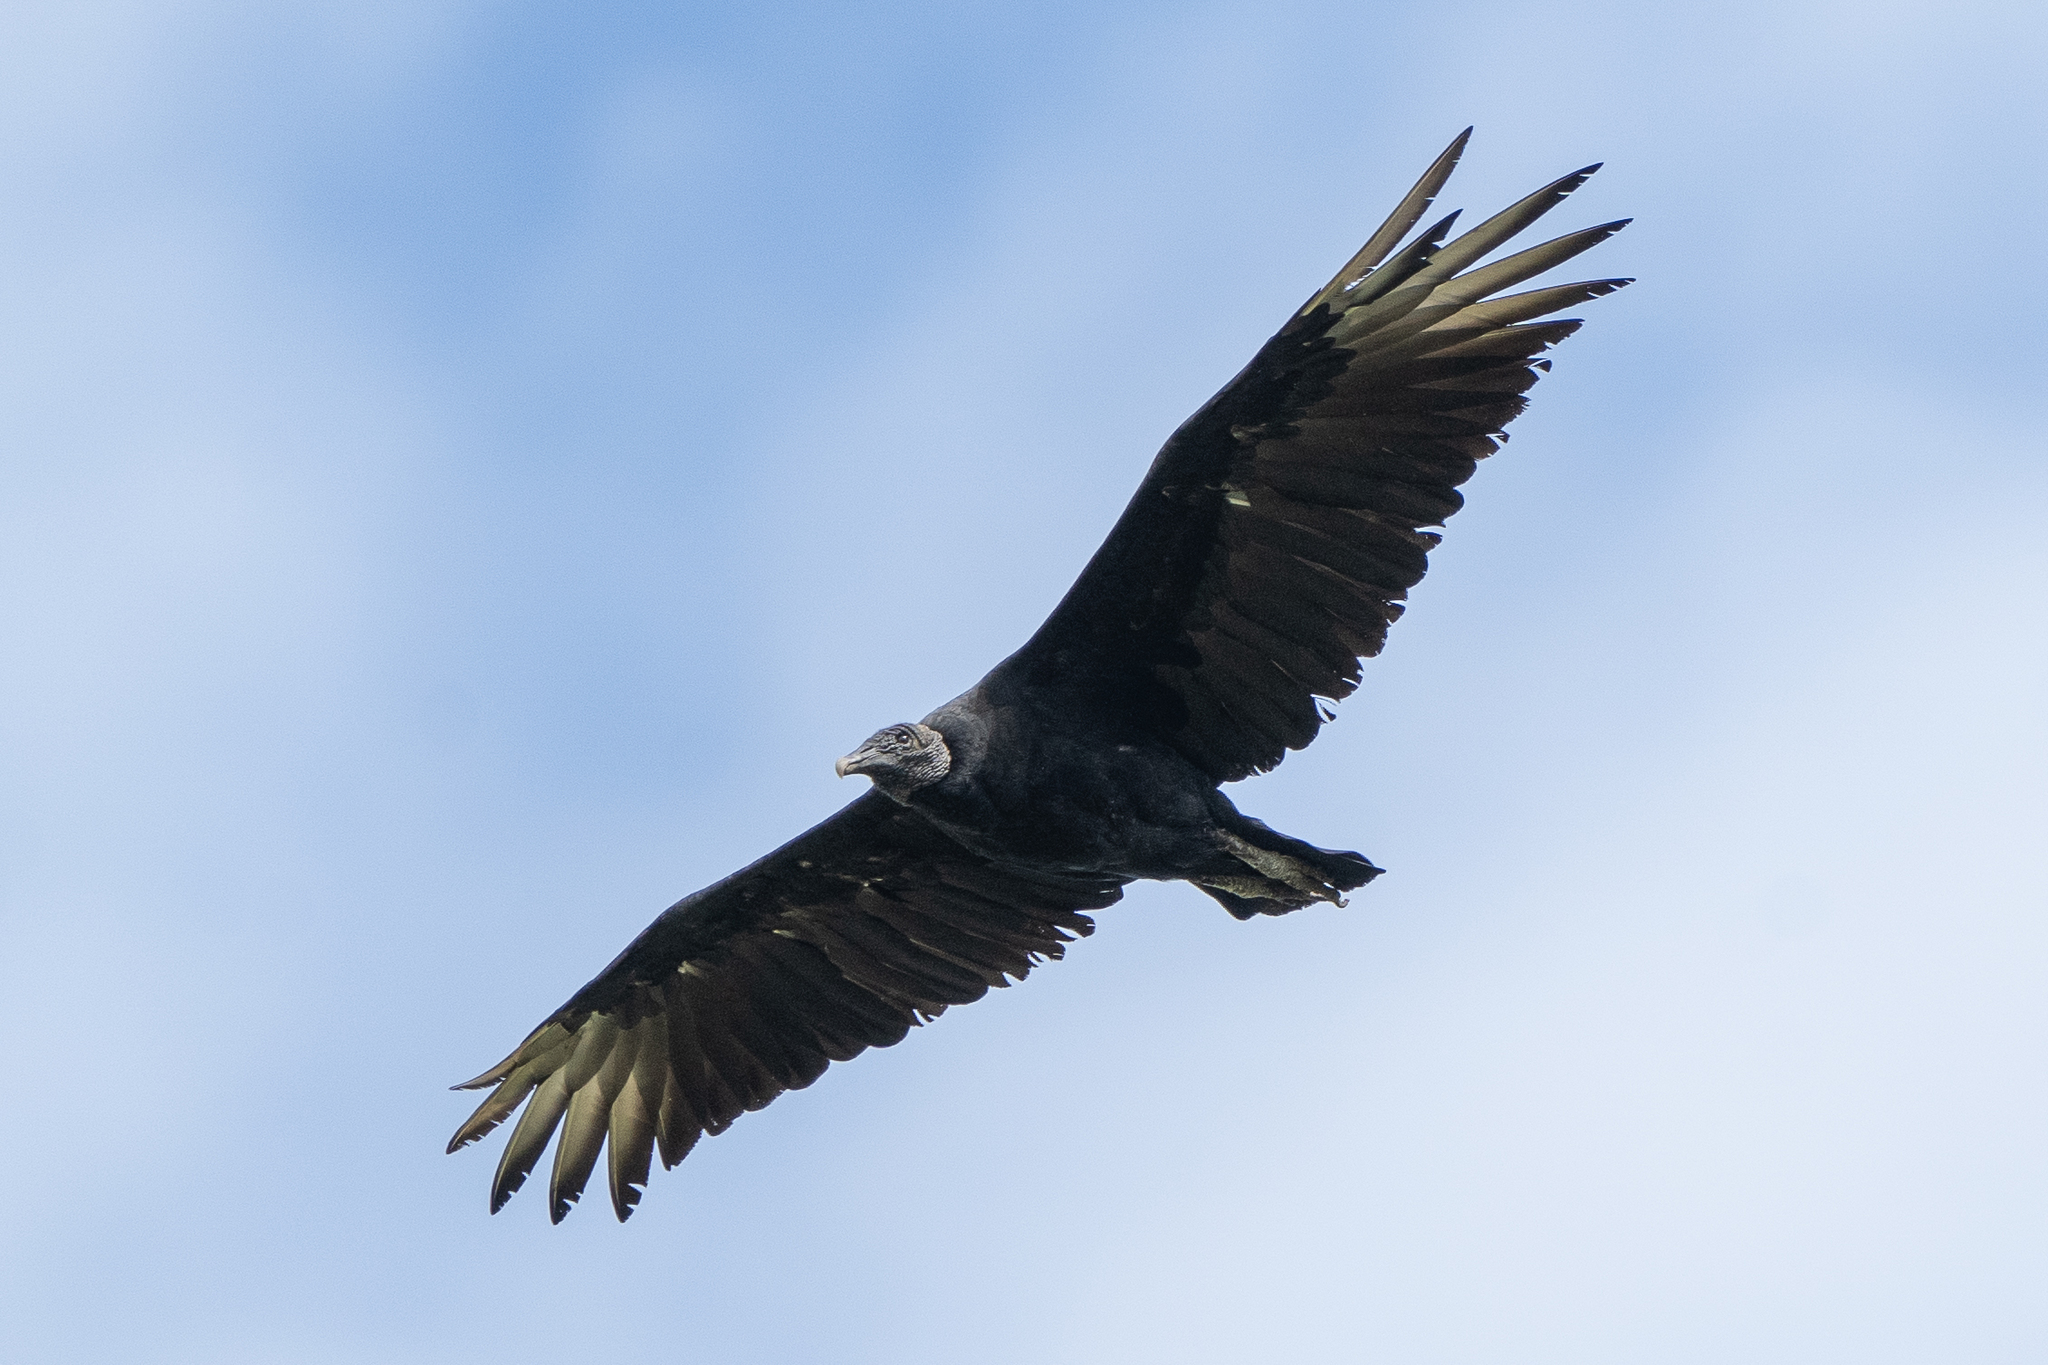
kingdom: Animalia
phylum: Chordata
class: Aves
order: Accipitriformes
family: Cathartidae
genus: Coragyps
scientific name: Coragyps atratus
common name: Black vulture
